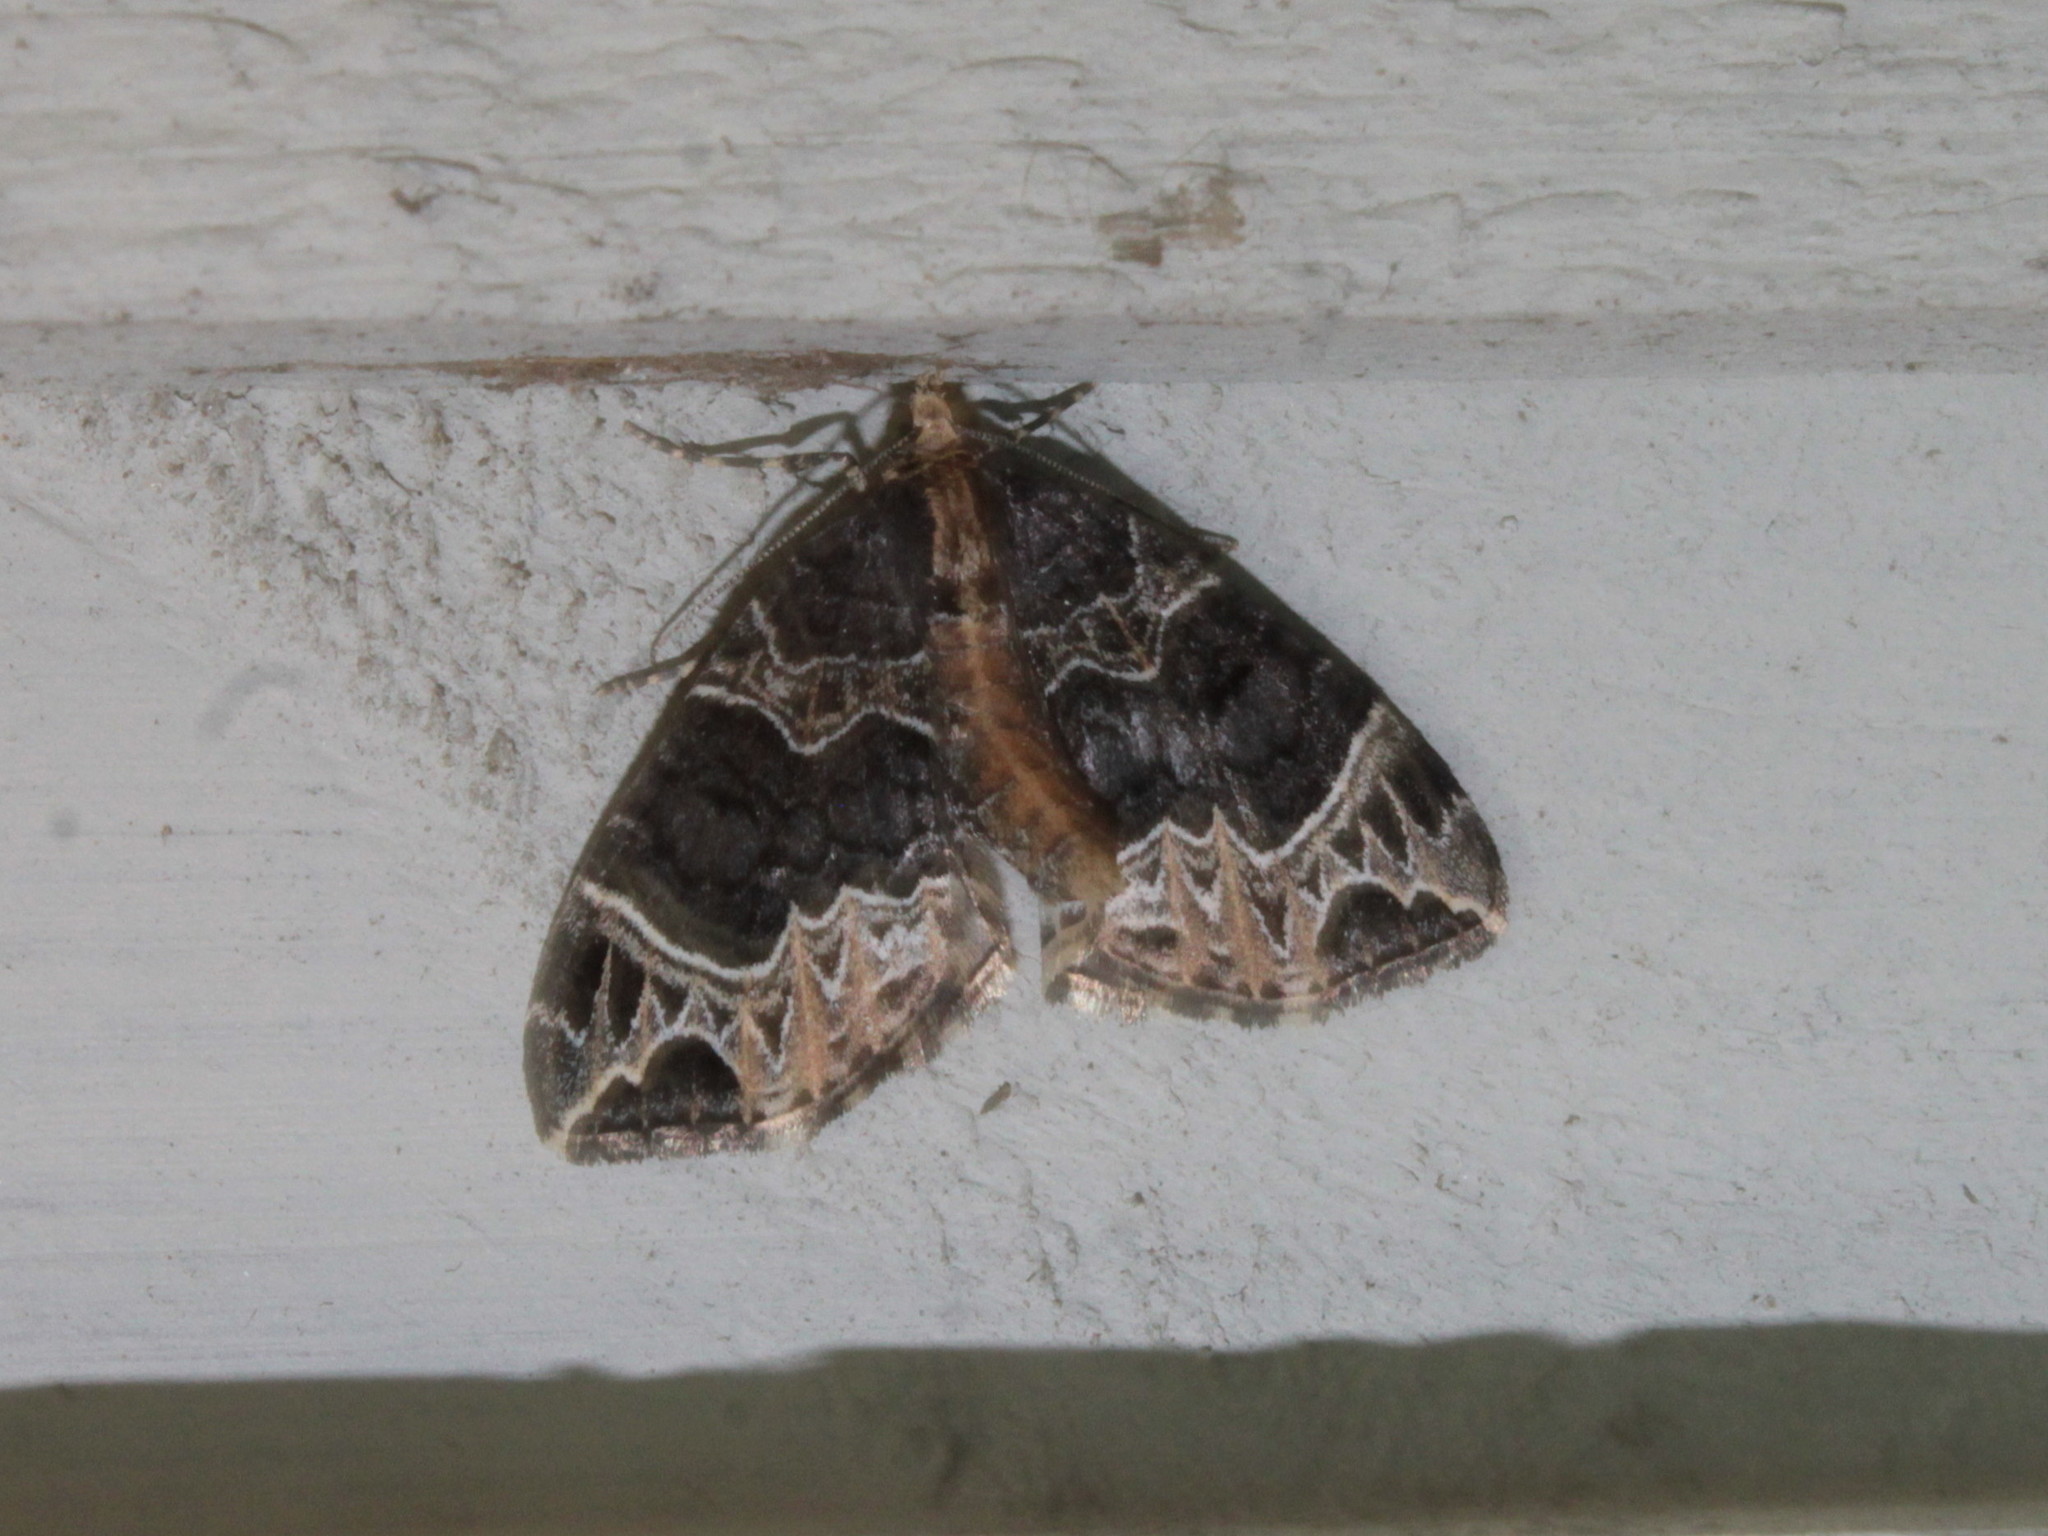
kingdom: Animalia
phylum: Arthropoda
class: Insecta
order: Lepidoptera
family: Geometridae
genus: Ecliptopera
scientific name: Ecliptopera silaceata
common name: Small phoenix
